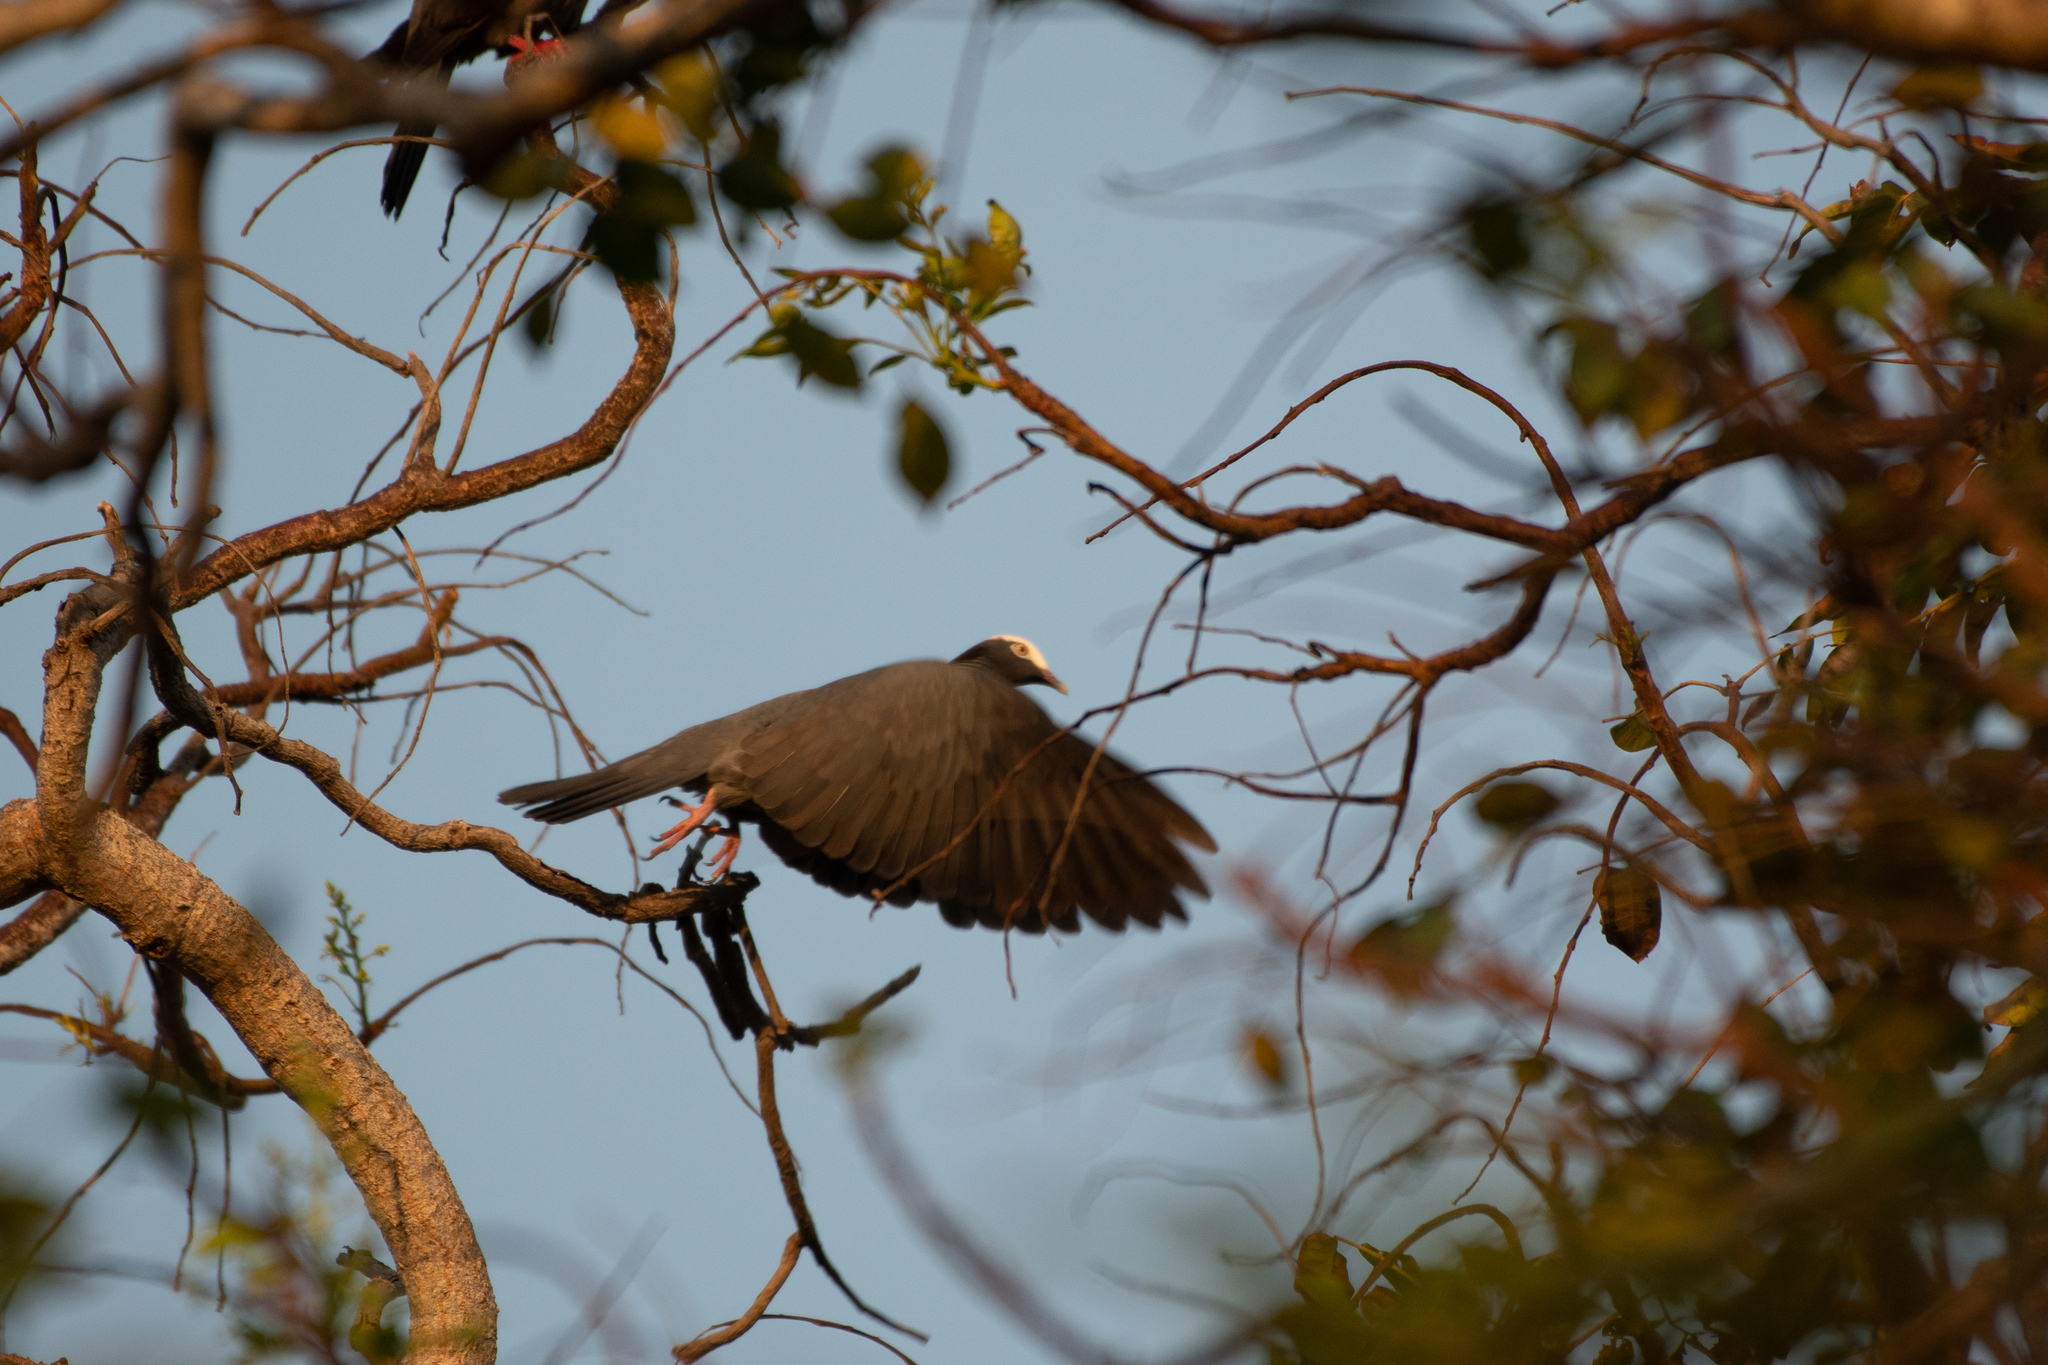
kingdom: Animalia
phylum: Chordata
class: Aves
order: Columbiformes
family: Columbidae
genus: Patagioenas
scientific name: Patagioenas leucocephala
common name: White-crowned pigeon
